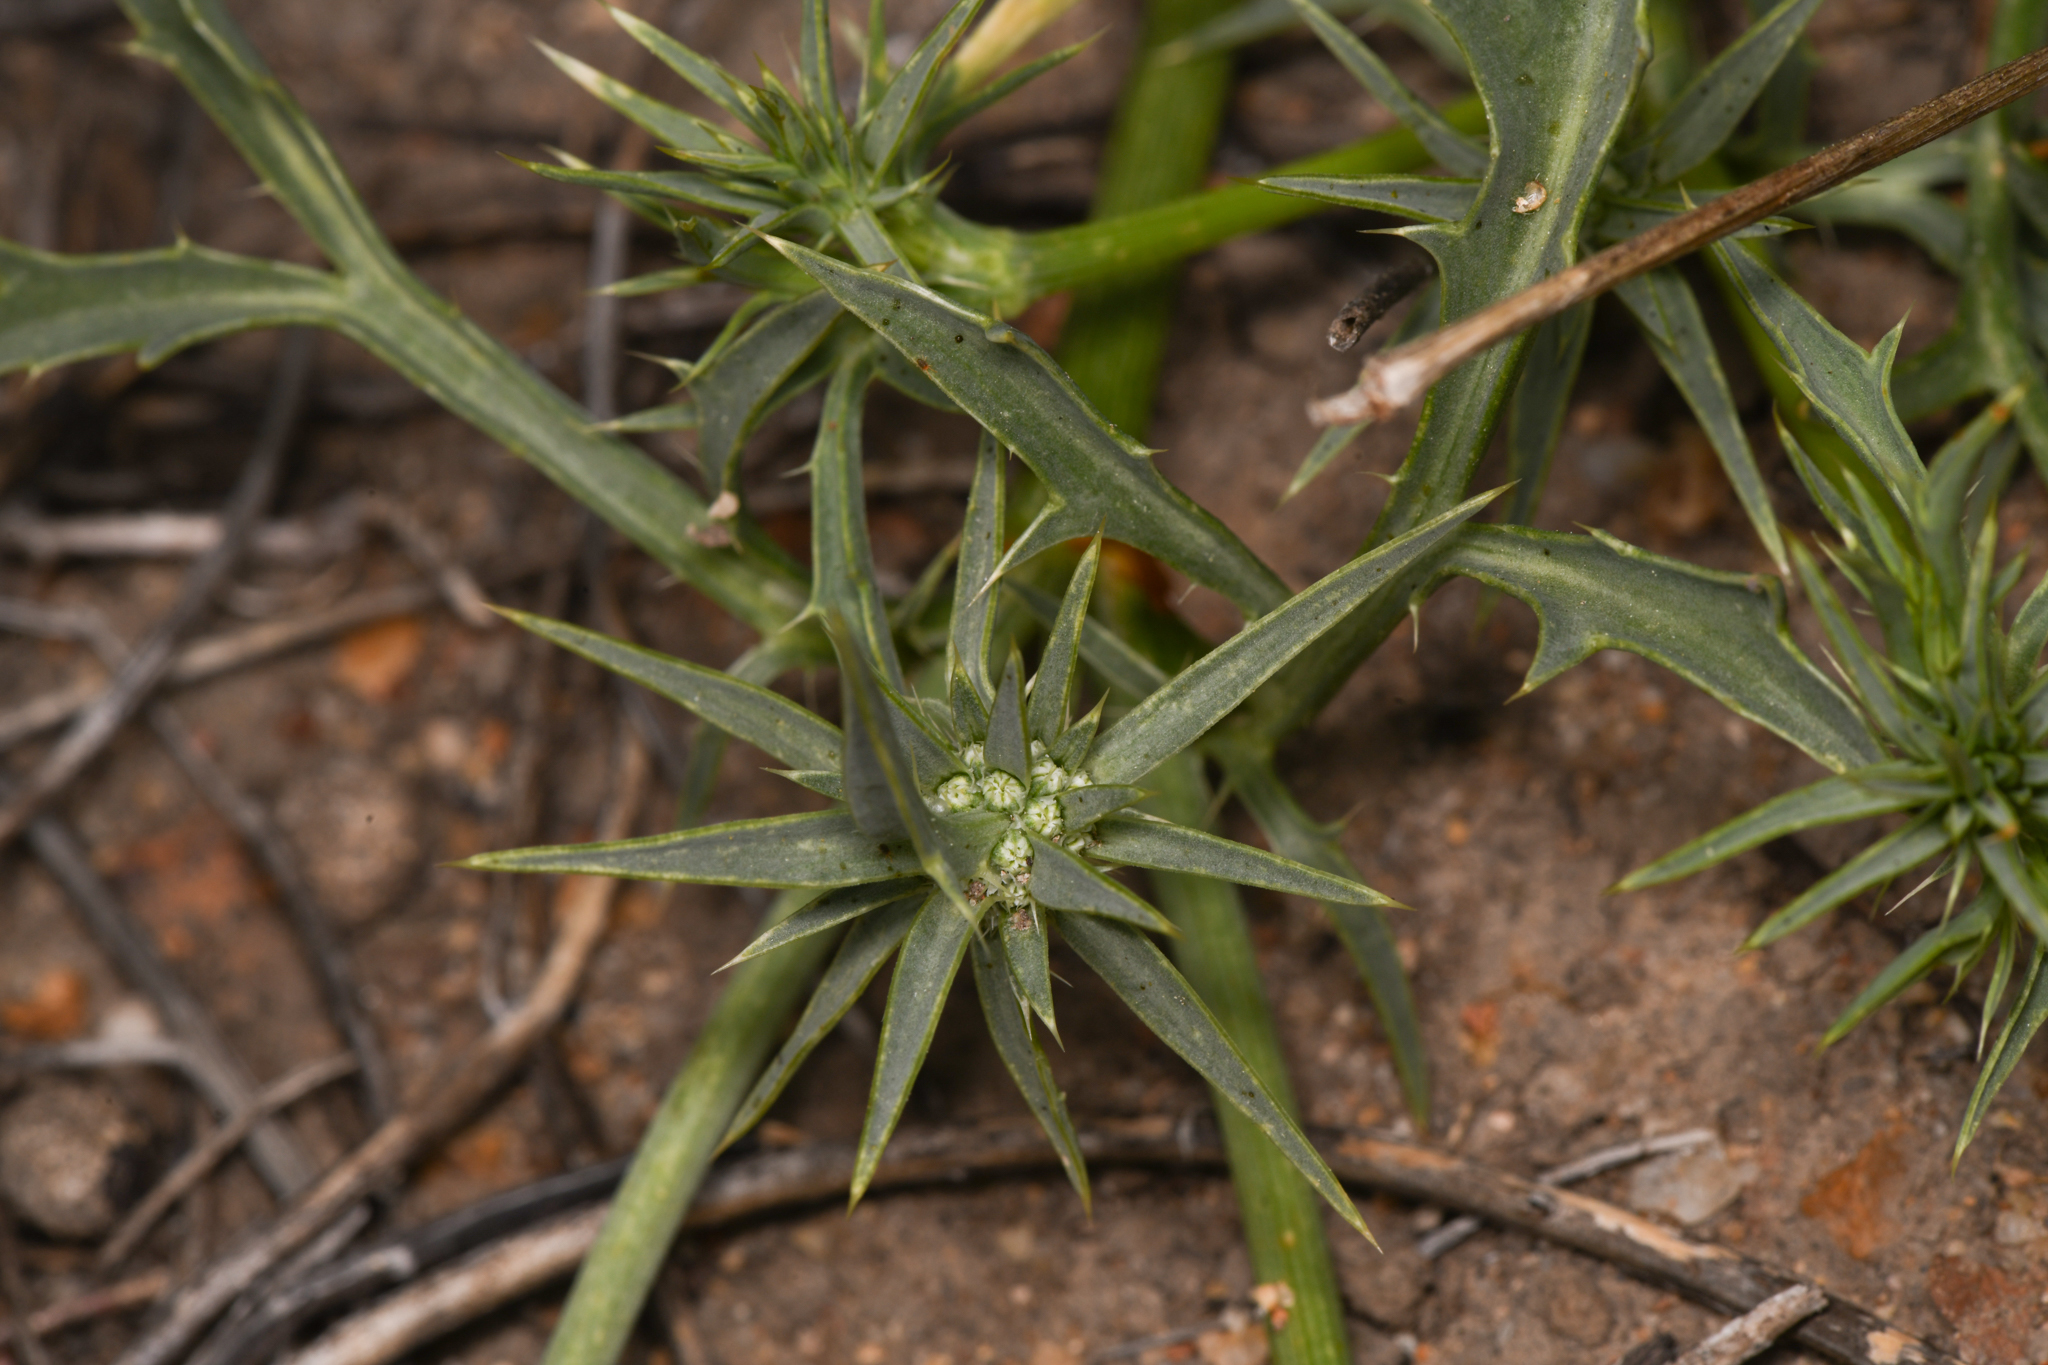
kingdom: Plantae
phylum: Tracheophyta
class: Magnoliopsida
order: Apiales
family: Apiaceae
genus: Eryngium
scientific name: Eryngium aristulatum
